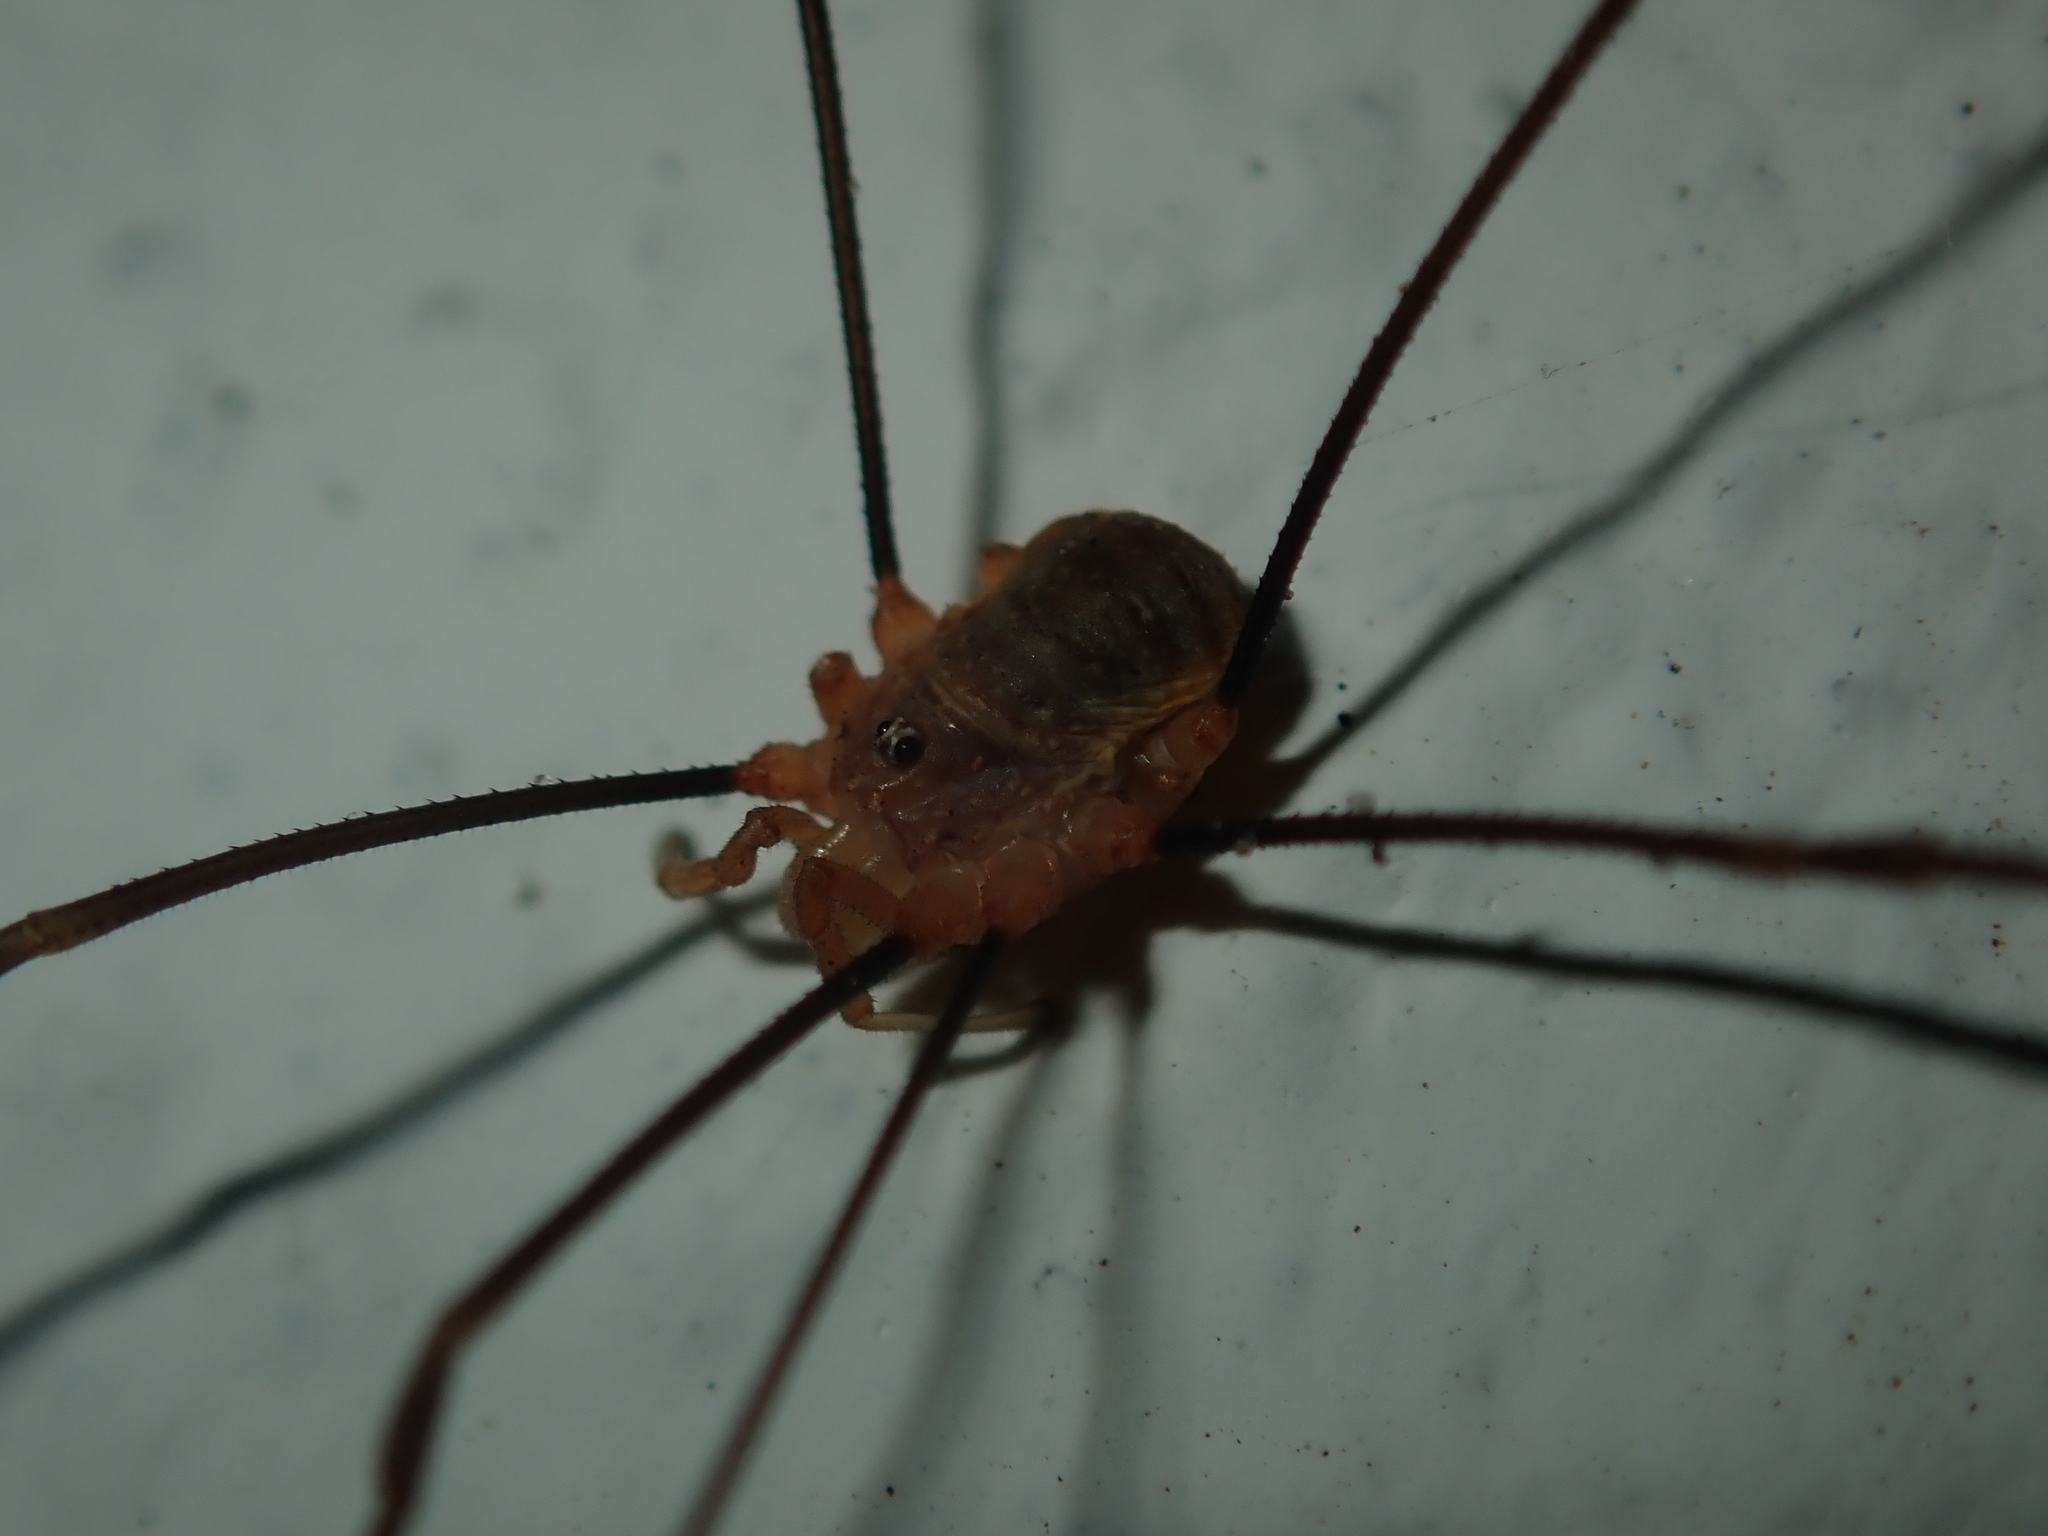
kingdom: Animalia
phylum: Arthropoda
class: Arachnida
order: Opiliones
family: Phalangiidae
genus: Opilio
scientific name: Opilio canestrinii
